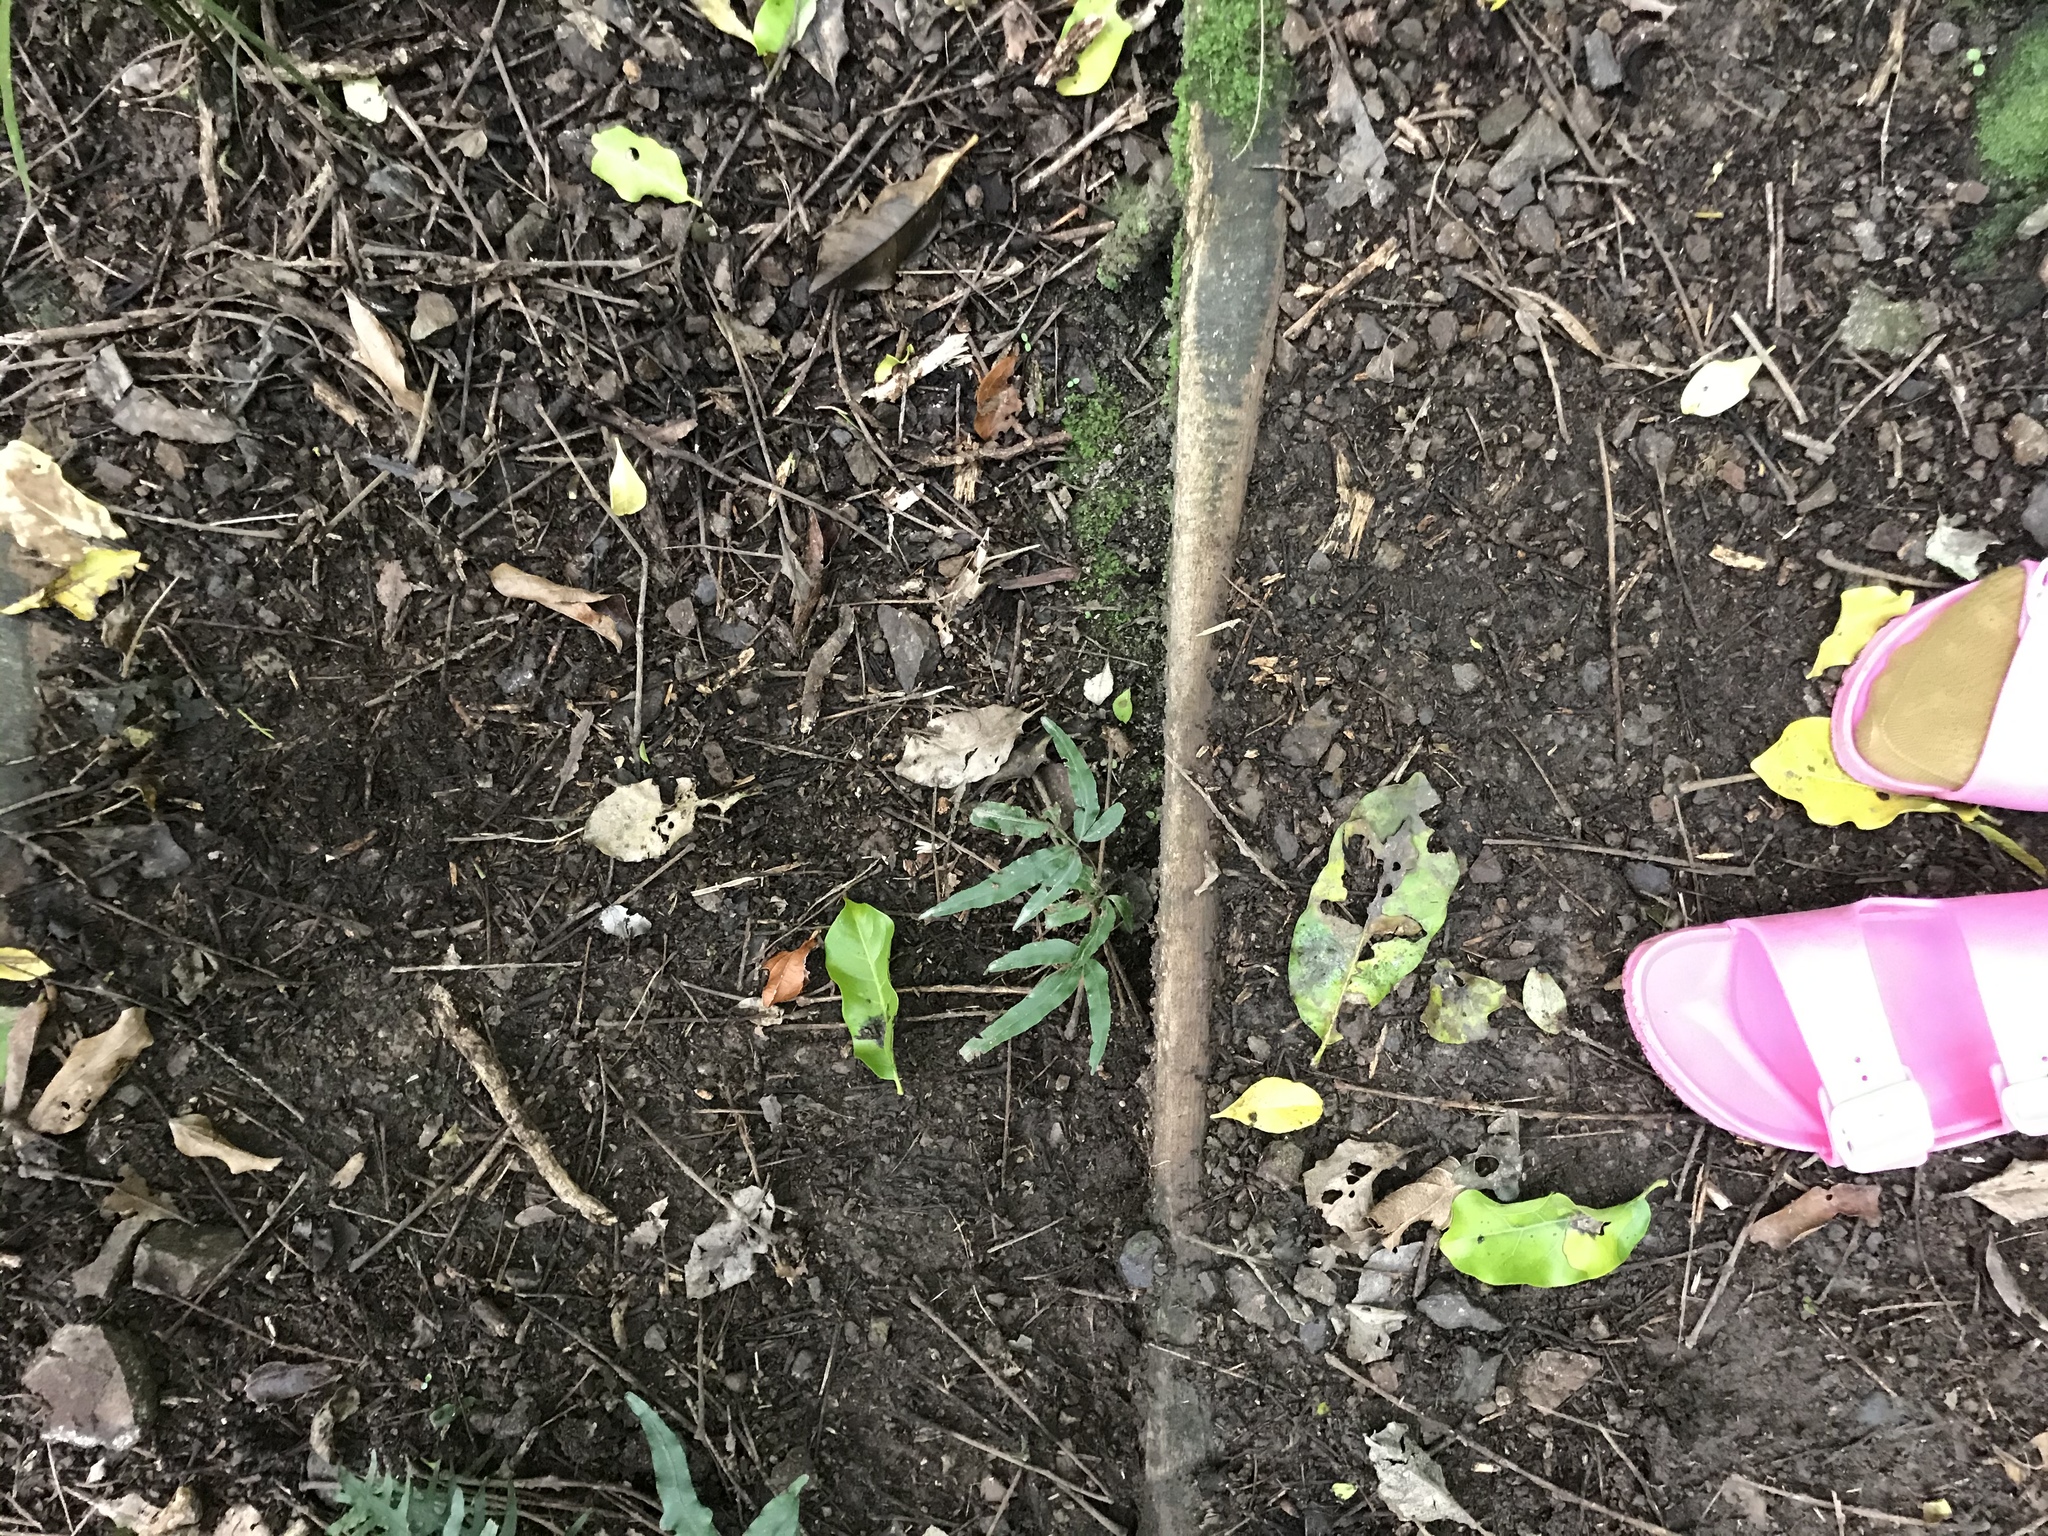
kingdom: Plantae
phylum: Tracheophyta
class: Polypodiopsida
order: Polypodiales
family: Pteridaceae
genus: Pteris
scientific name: Pteris cretica
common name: Ribbon fern
